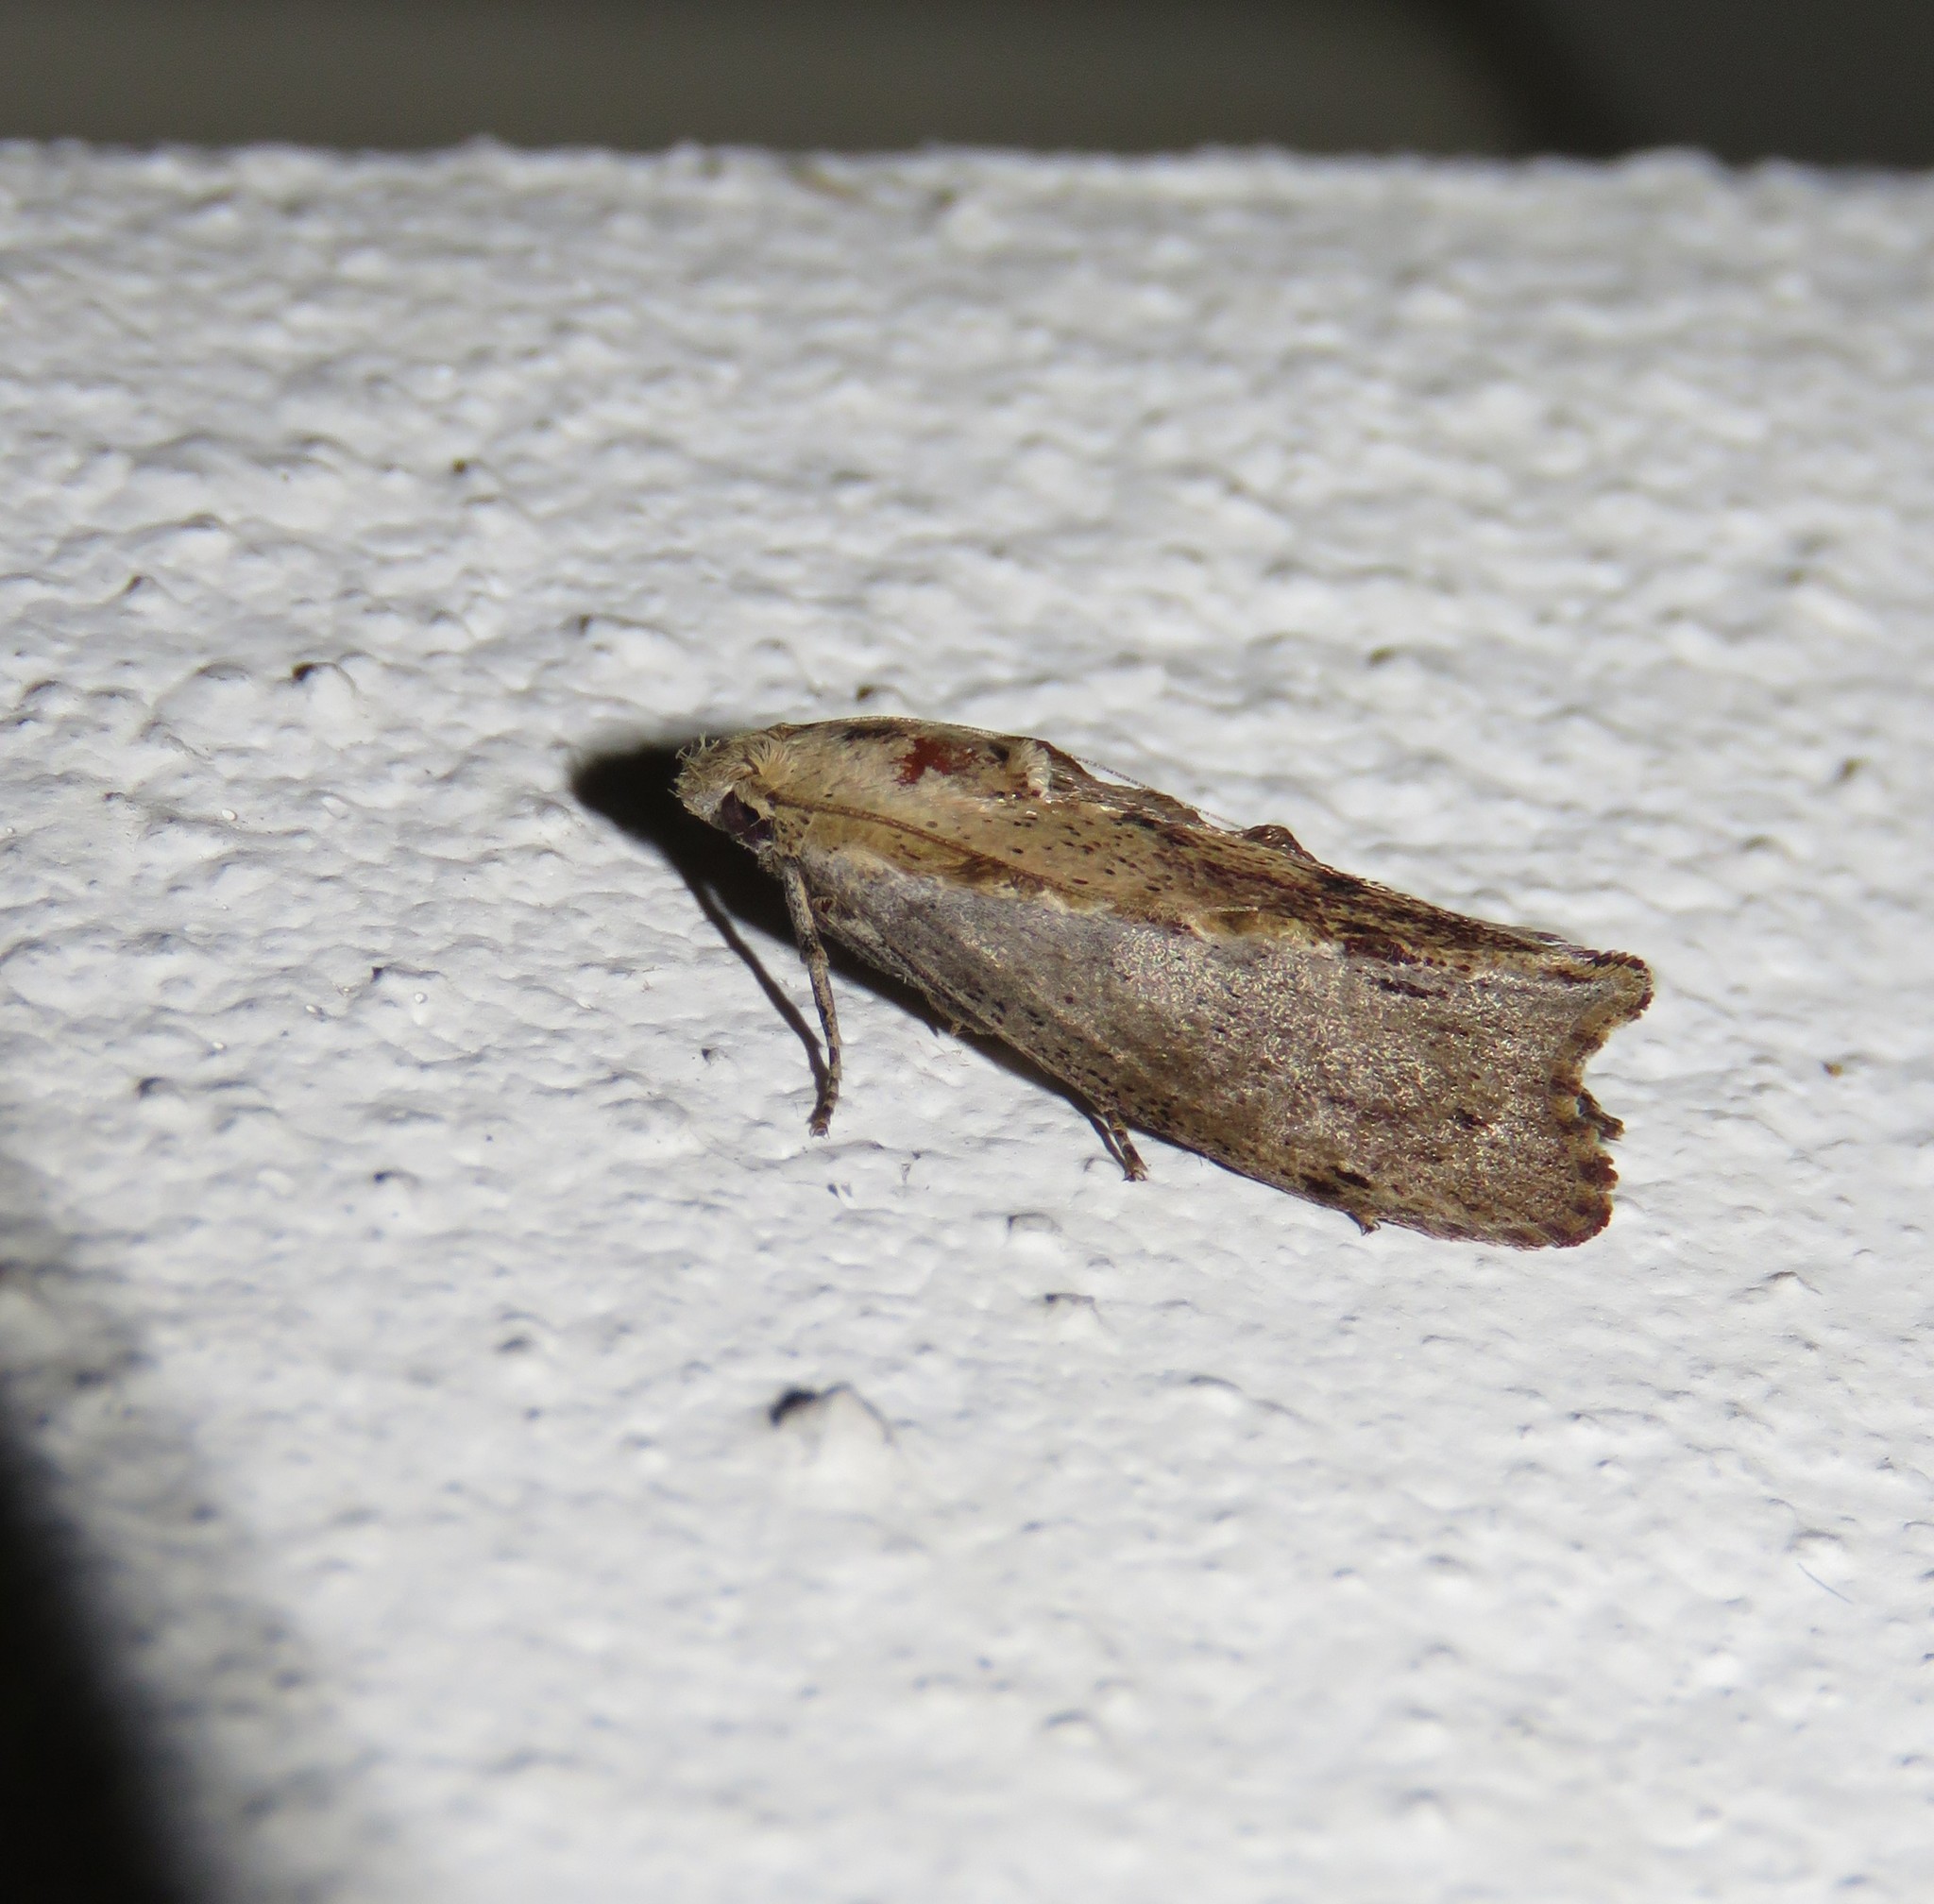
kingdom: Animalia
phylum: Arthropoda
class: Insecta
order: Lepidoptera
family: Pyralidae
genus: Galleria
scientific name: Galleria mellonella
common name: Greater wax moth
